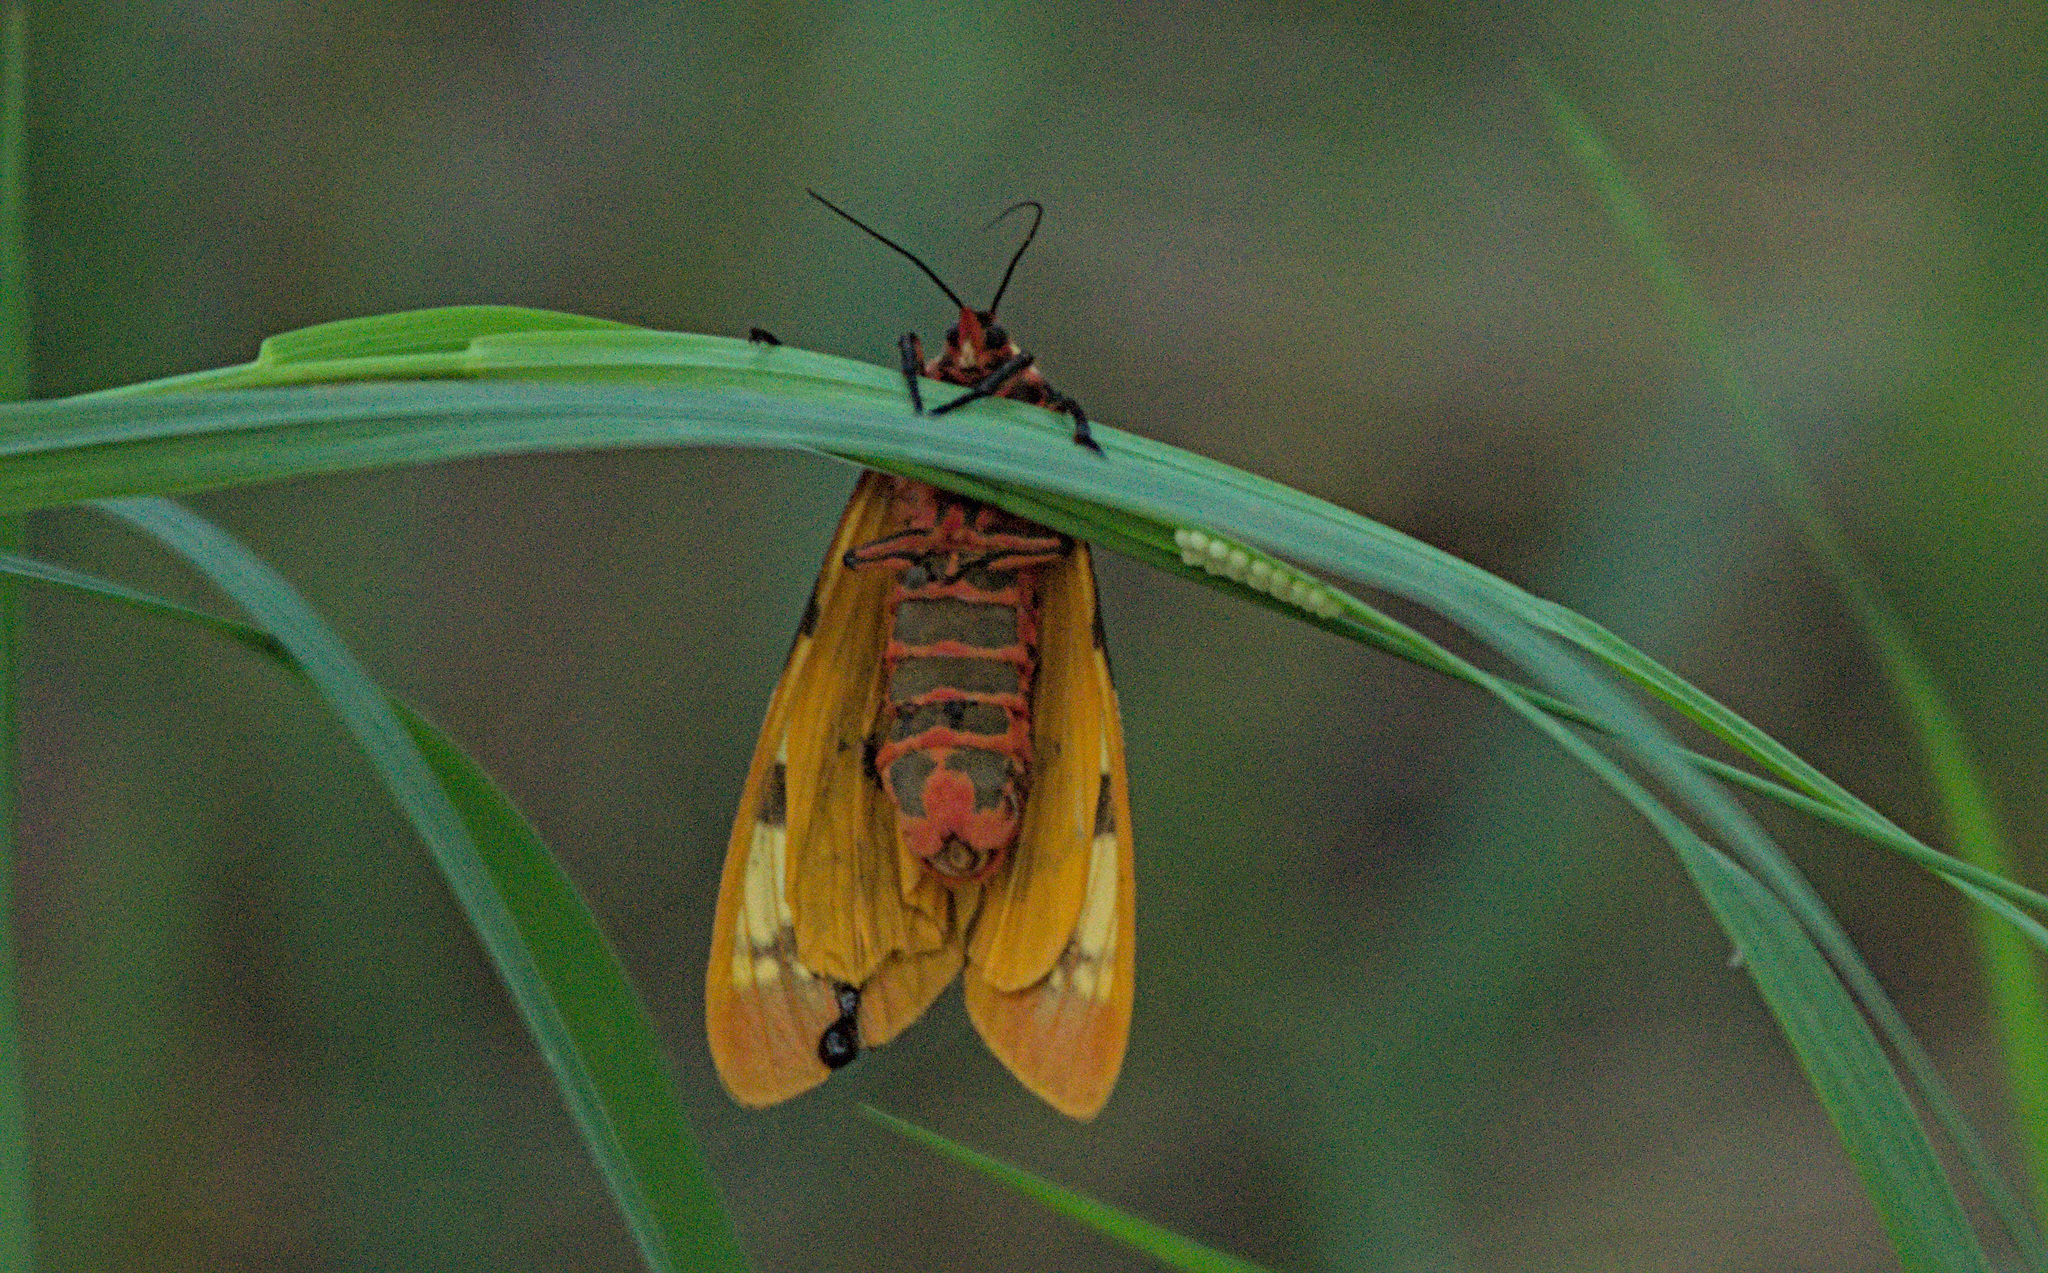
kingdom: Animalia
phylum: Arthropoda
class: Insecta
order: Lepidoptera
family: Erebidae
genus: Pericallia
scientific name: Pericallia matronula
